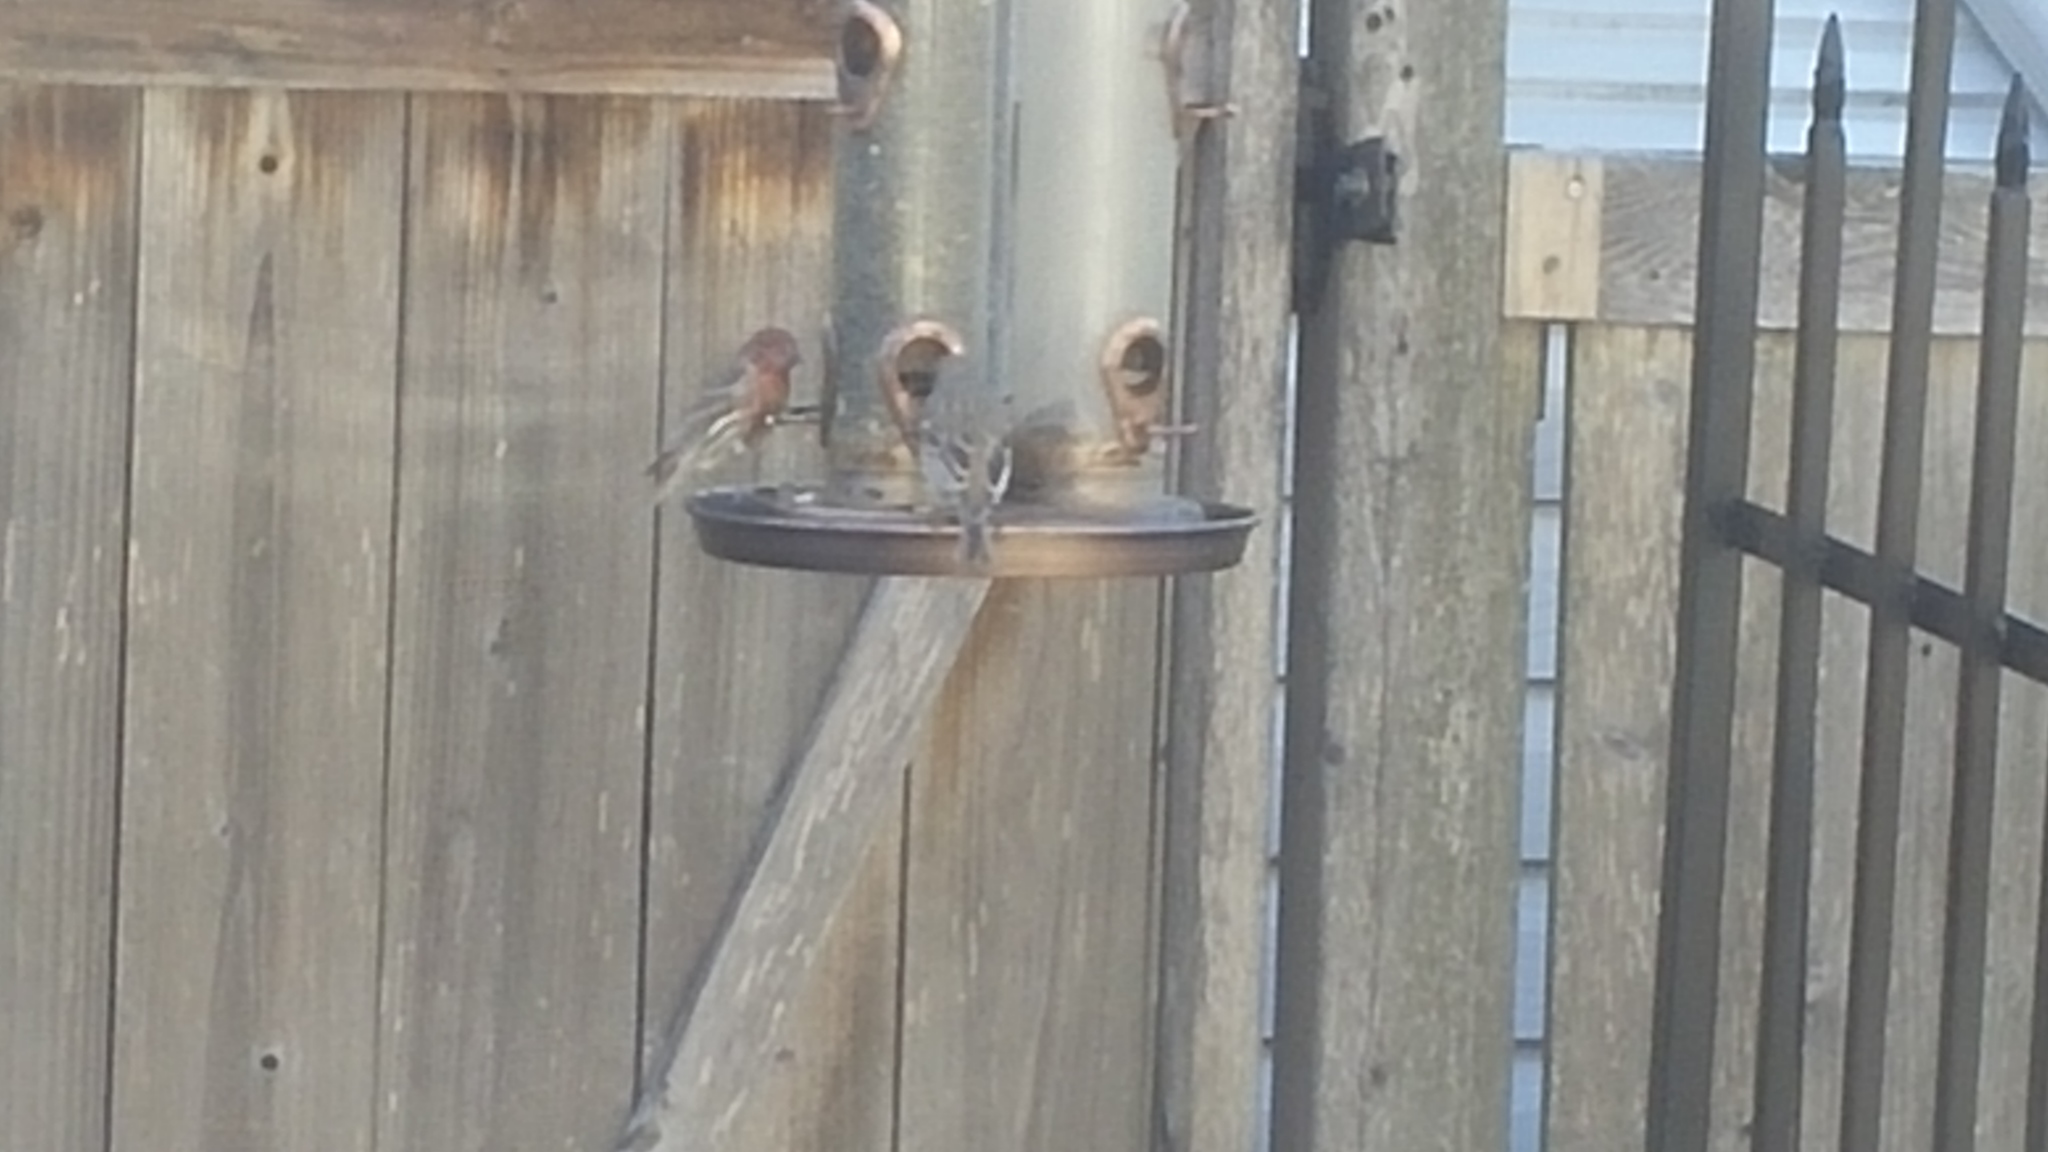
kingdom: Animalia
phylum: Chordata
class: Aves
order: Passeriformes
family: Fringillidae
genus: Haemorhous
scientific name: Haemorhous mexicanus
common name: House finch
